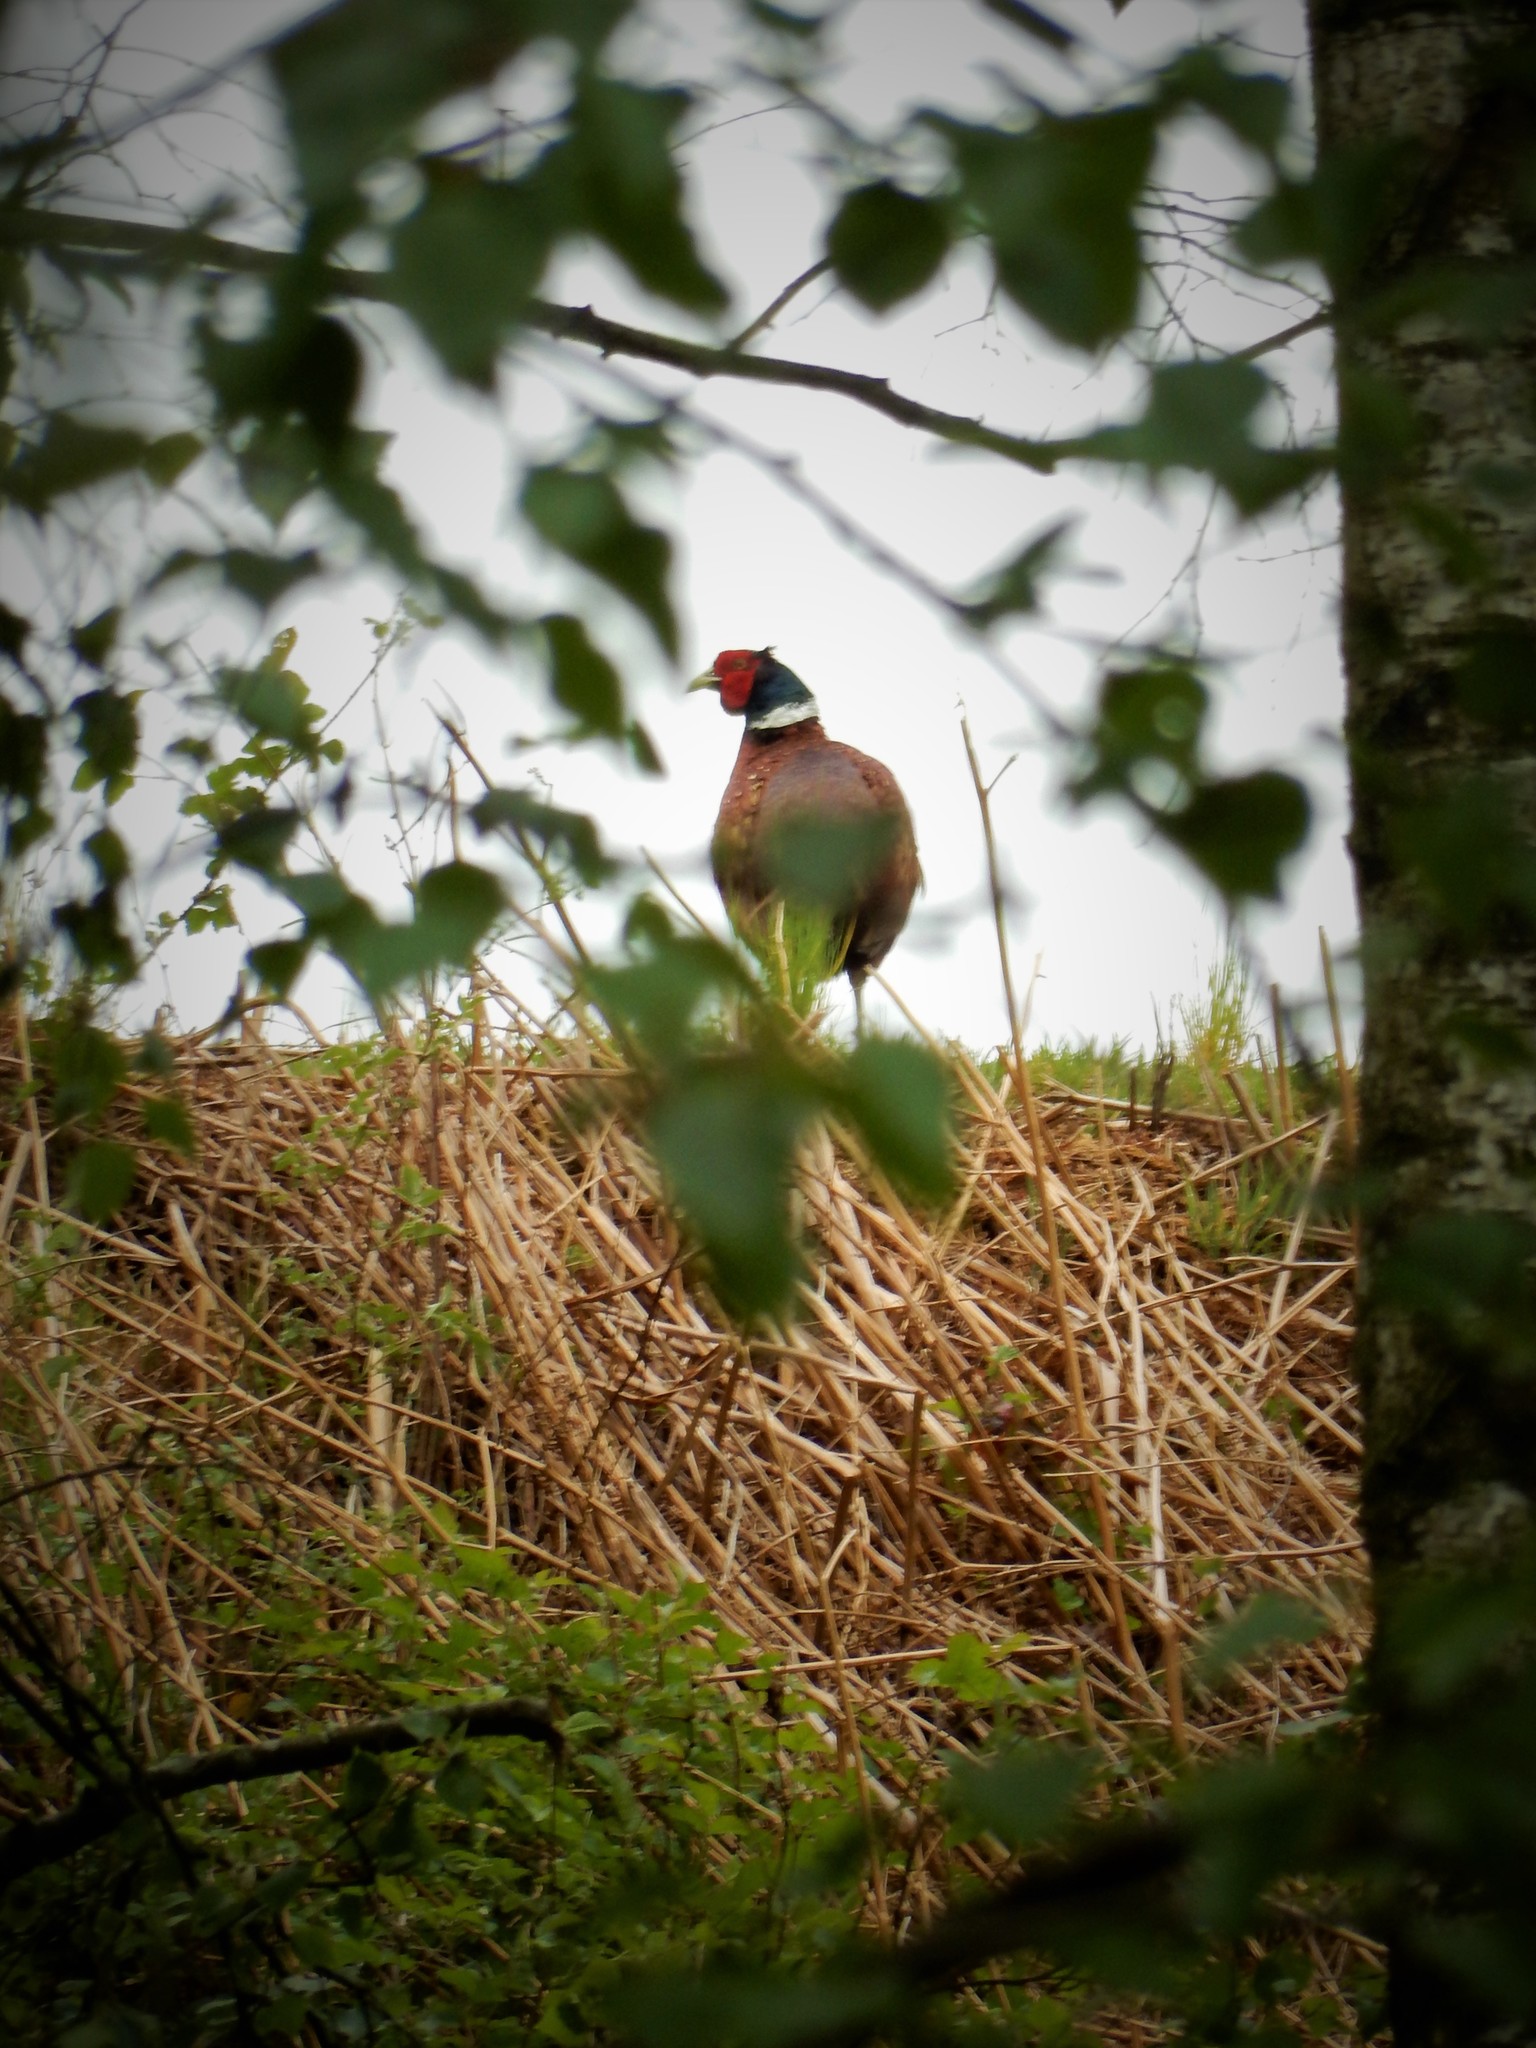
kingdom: Animalia
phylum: Chordata
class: Aves
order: Galliformes
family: Phasianidae
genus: Phasianus
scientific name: Phasianus colchicus
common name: Common pheasant
